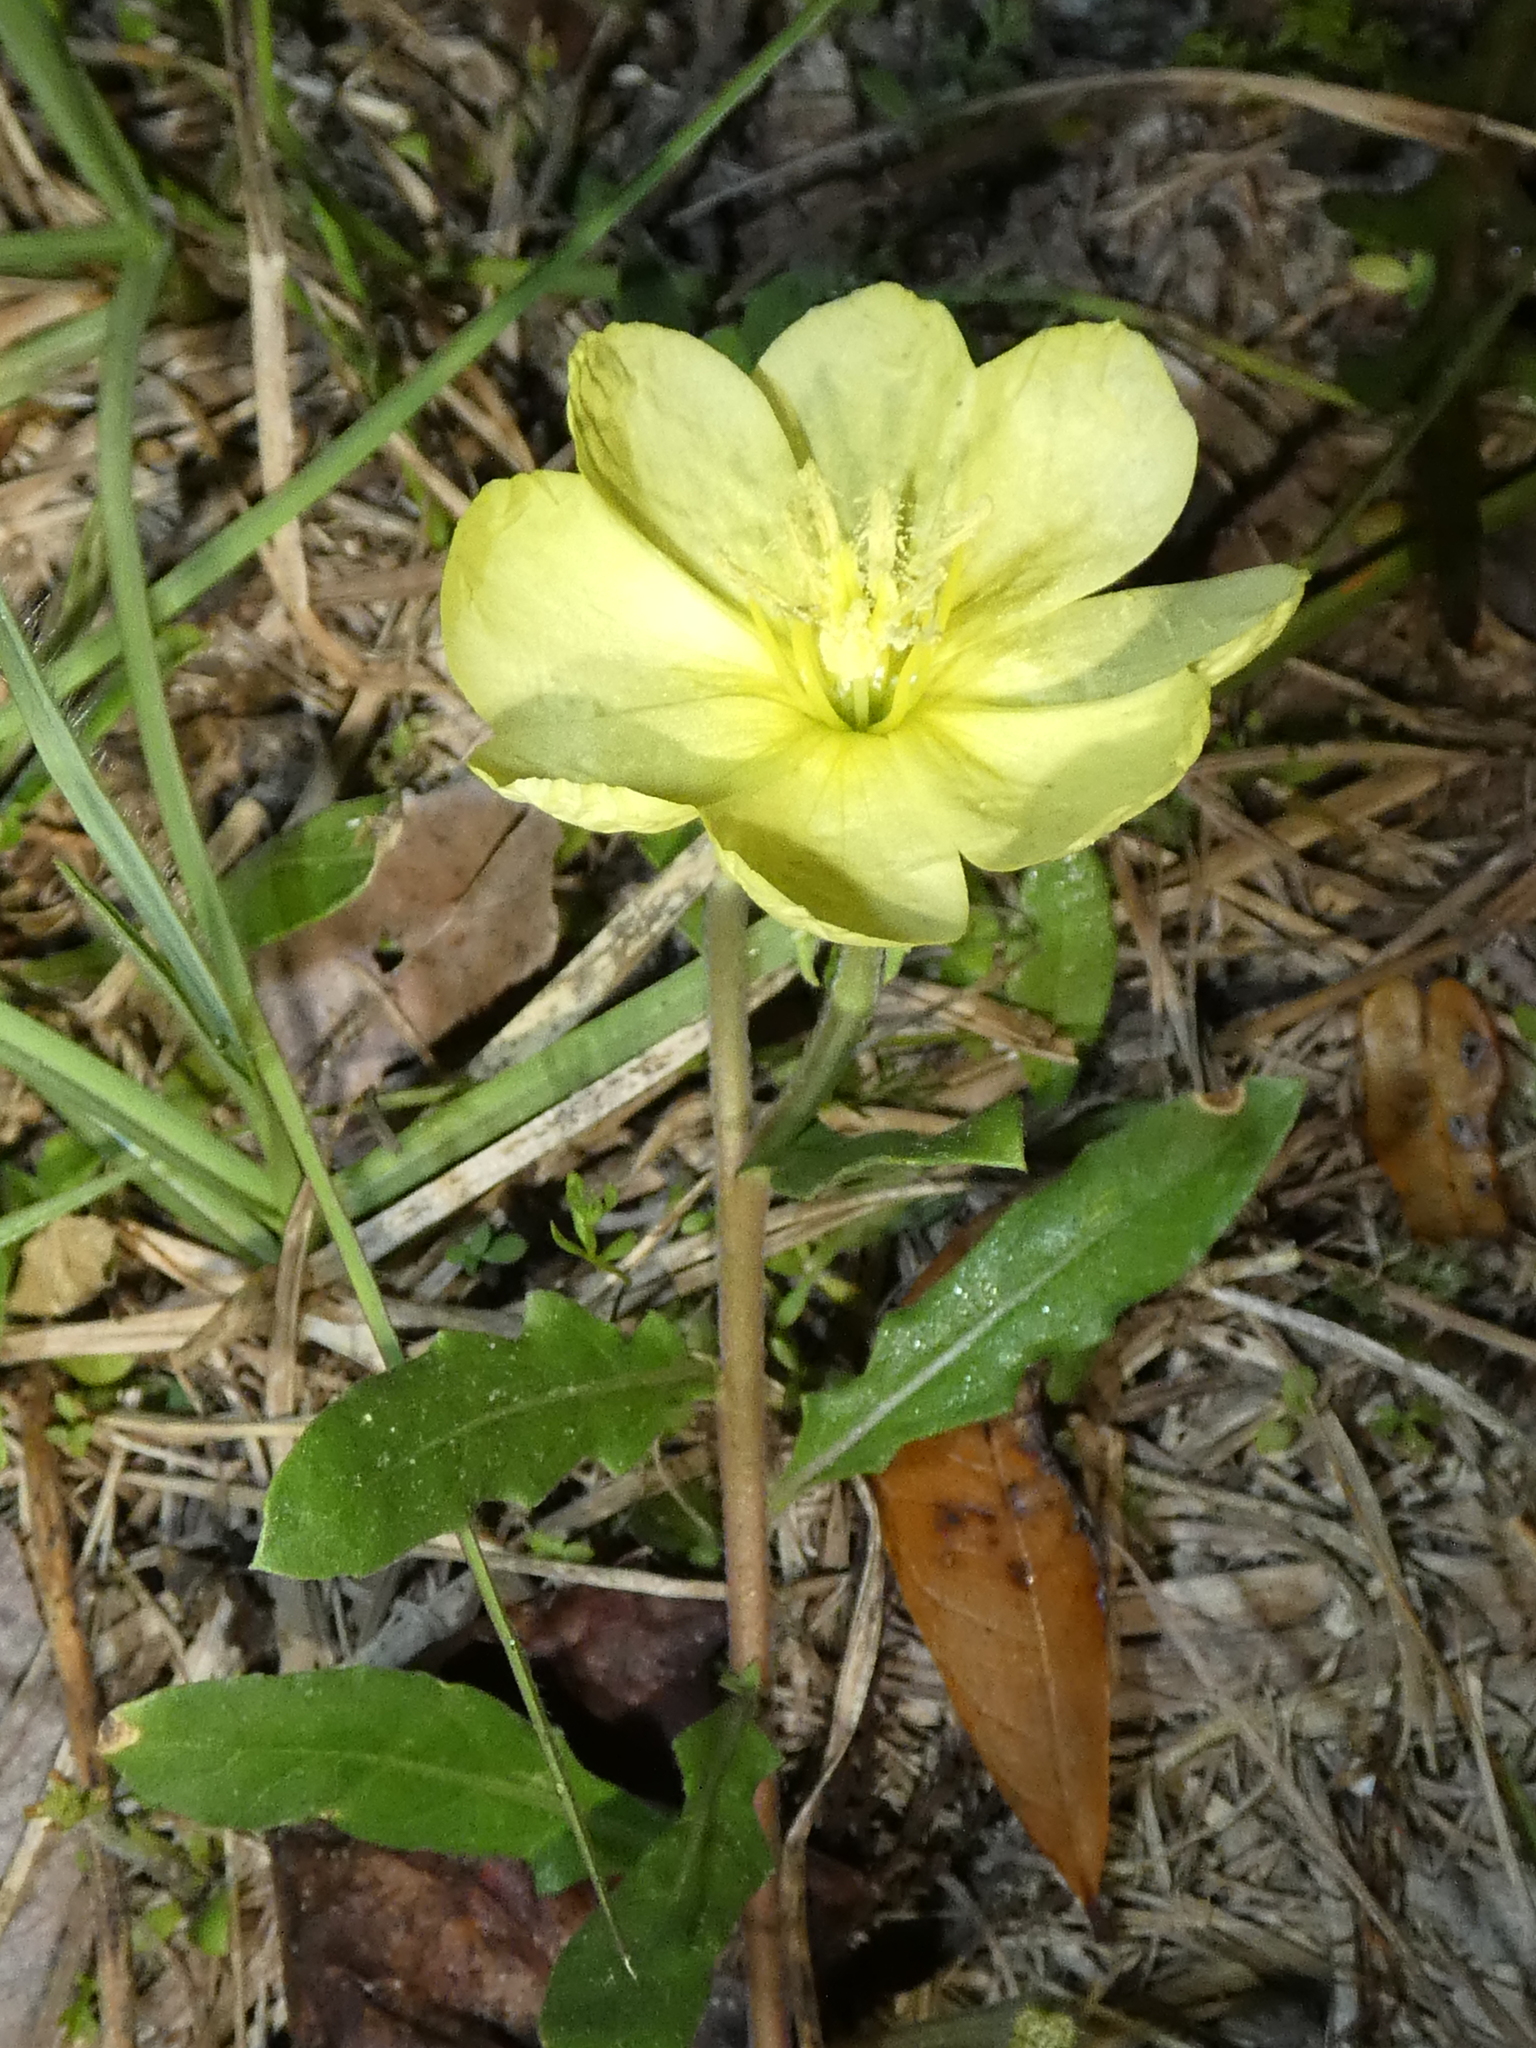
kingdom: Plantae
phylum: Tracheophyta
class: Magnoliopsida
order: Myrtales
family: Onagraceae
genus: Oenothera
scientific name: Oenothera laciniata
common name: Cut-leaved evening-primrose
